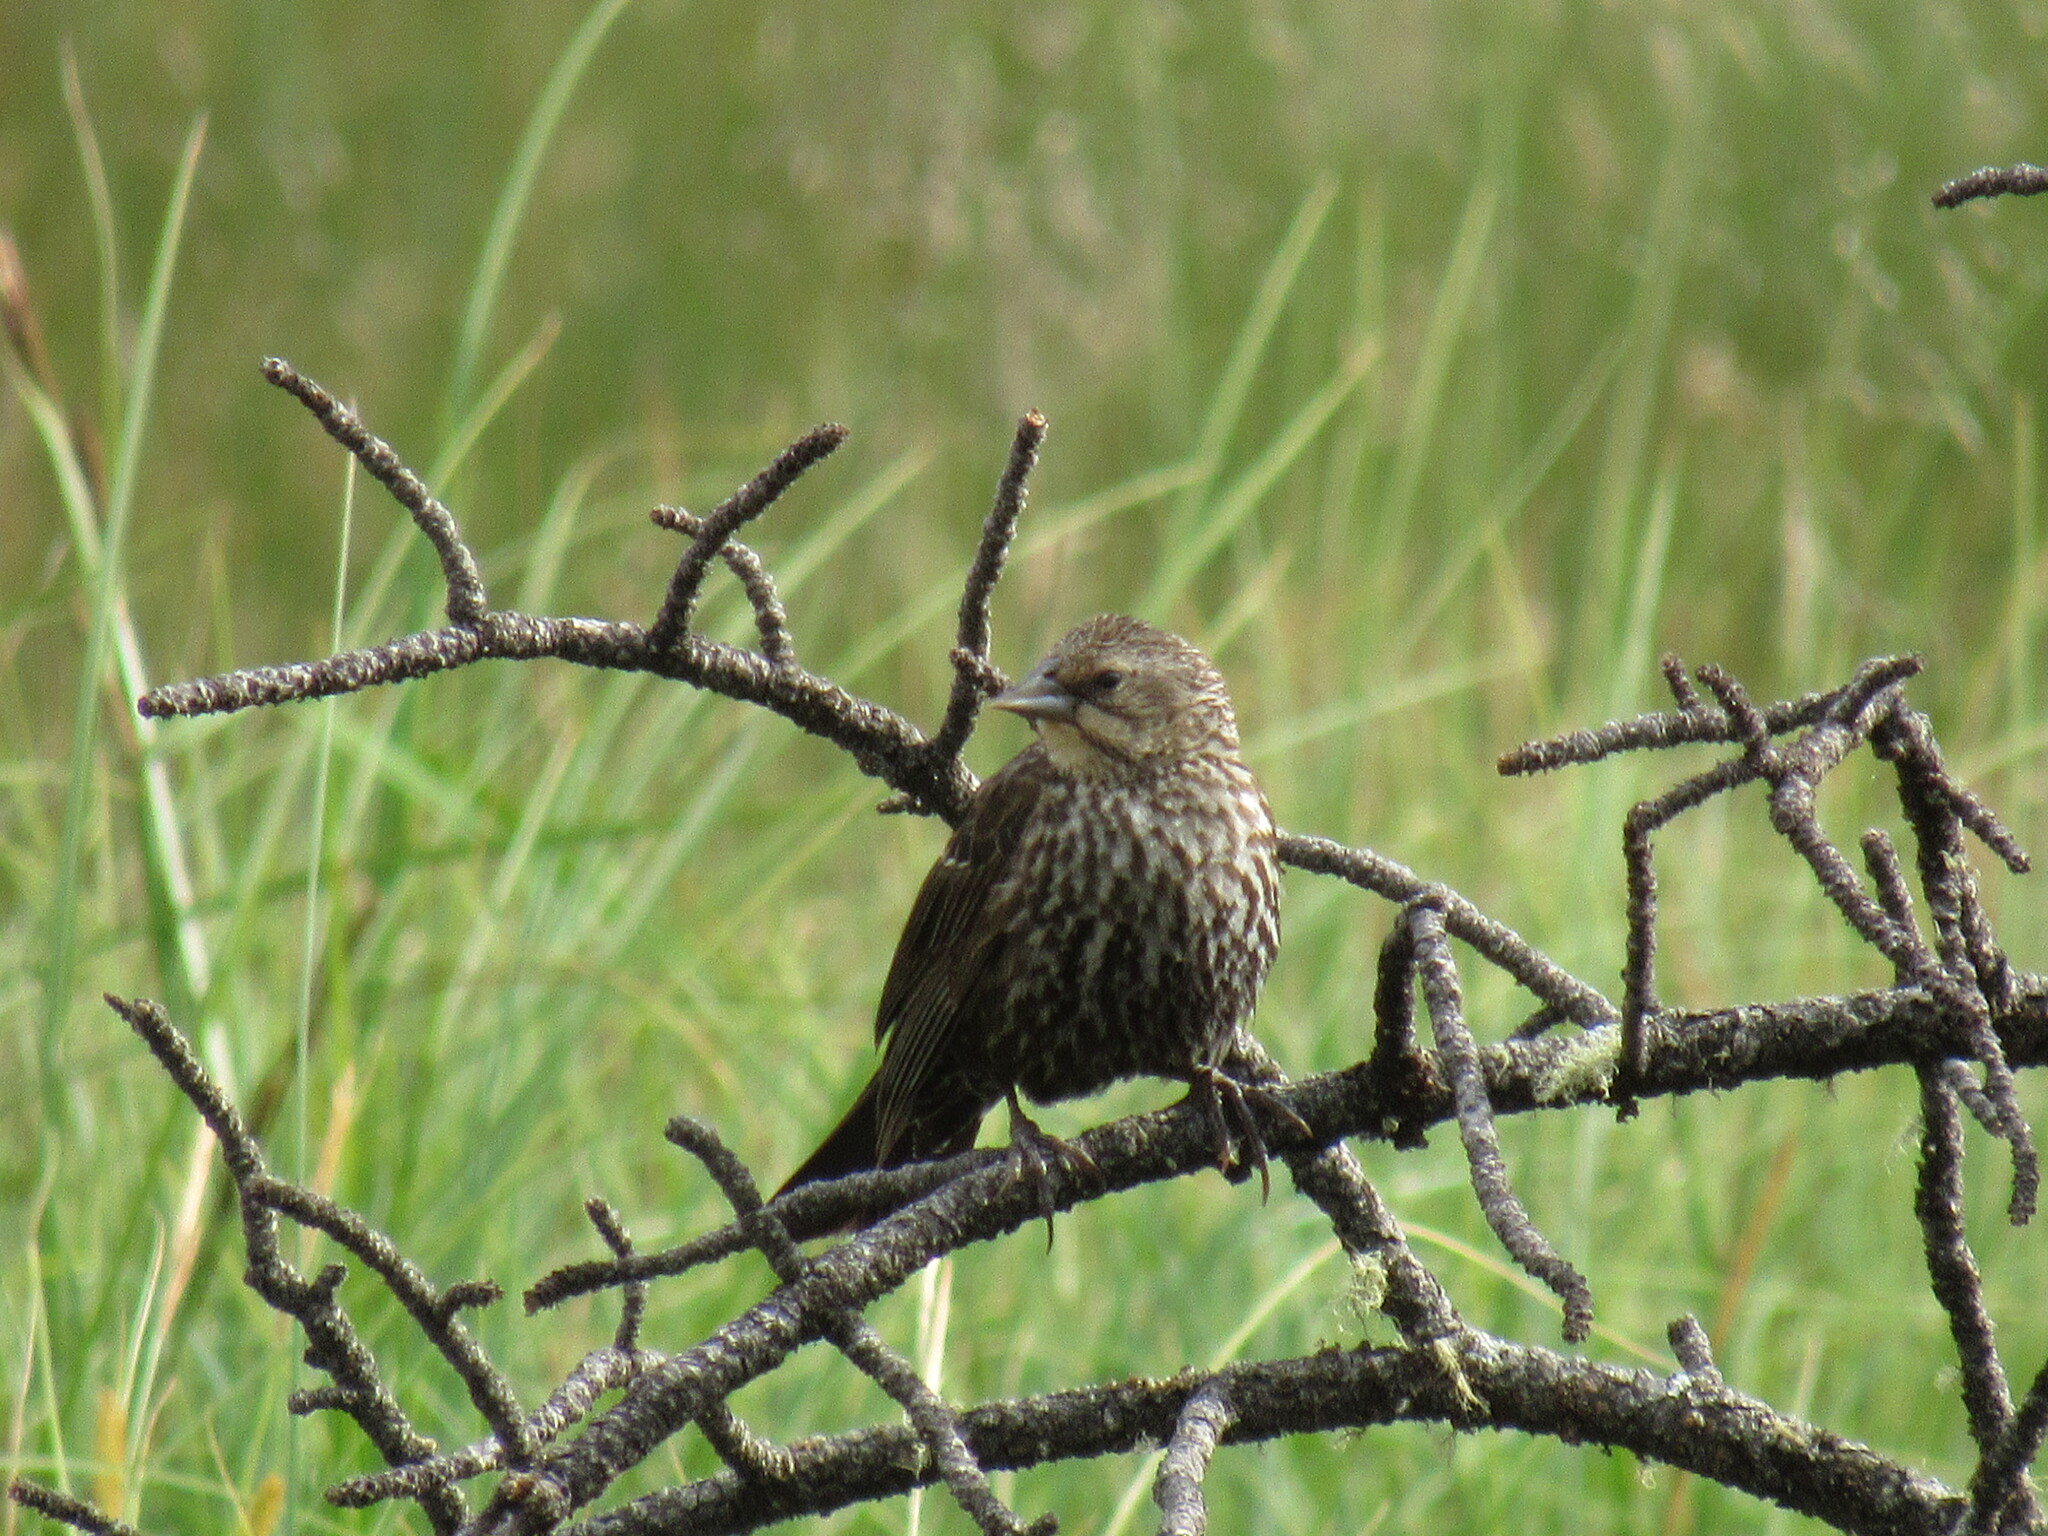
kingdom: Animalia
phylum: Chordata
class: Aves
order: Passeriformes
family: Icteridae
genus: Agelaius
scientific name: Agelaius phoeniceus
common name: Red-winged blackbird
